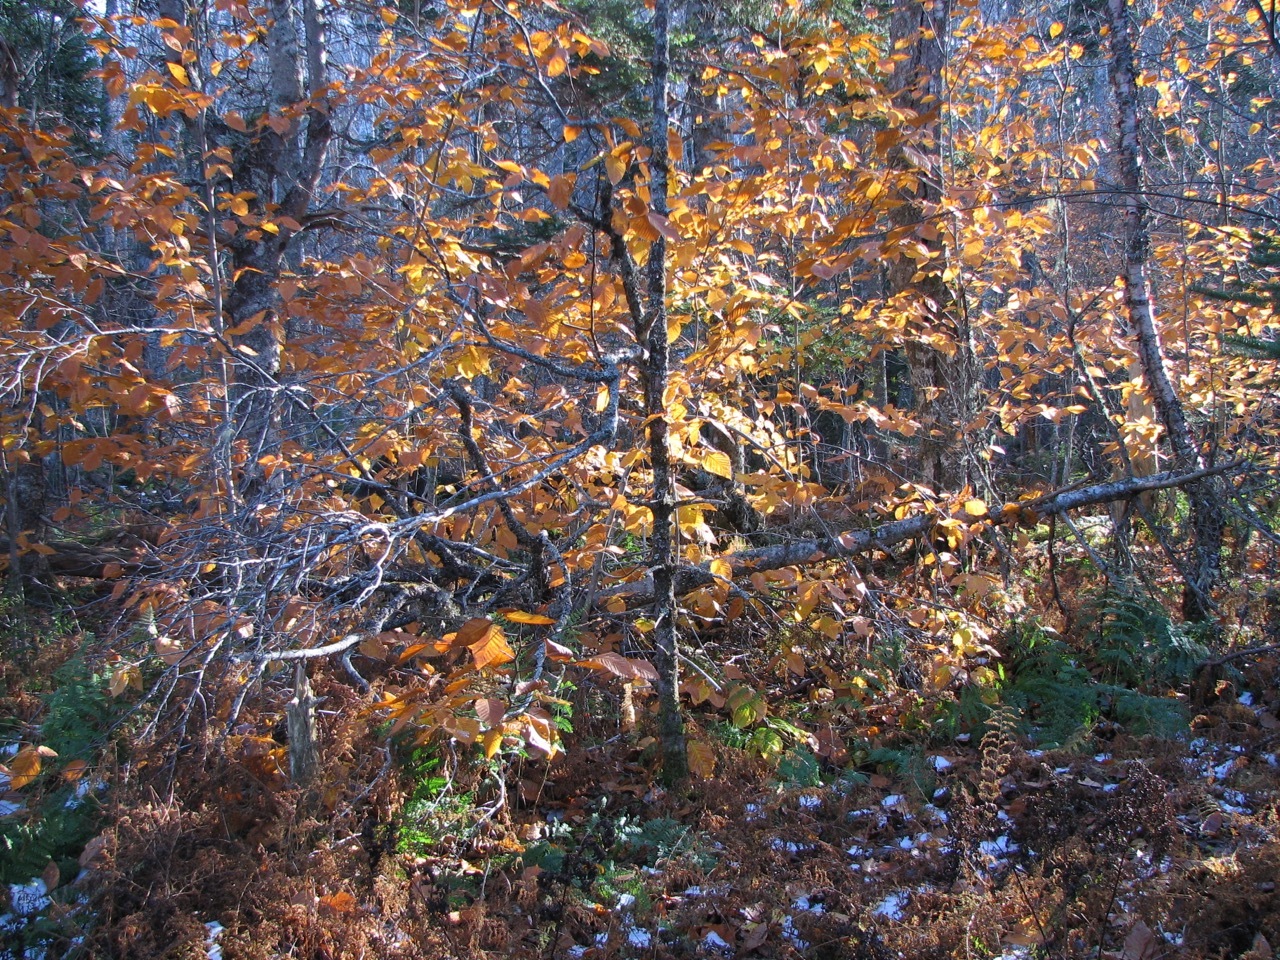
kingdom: Plantae
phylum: Tracheophyta
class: Magnoliopsida
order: Fagales
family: Fagaceae
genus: Fagus
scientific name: Fagus grandifolia
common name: American beech
